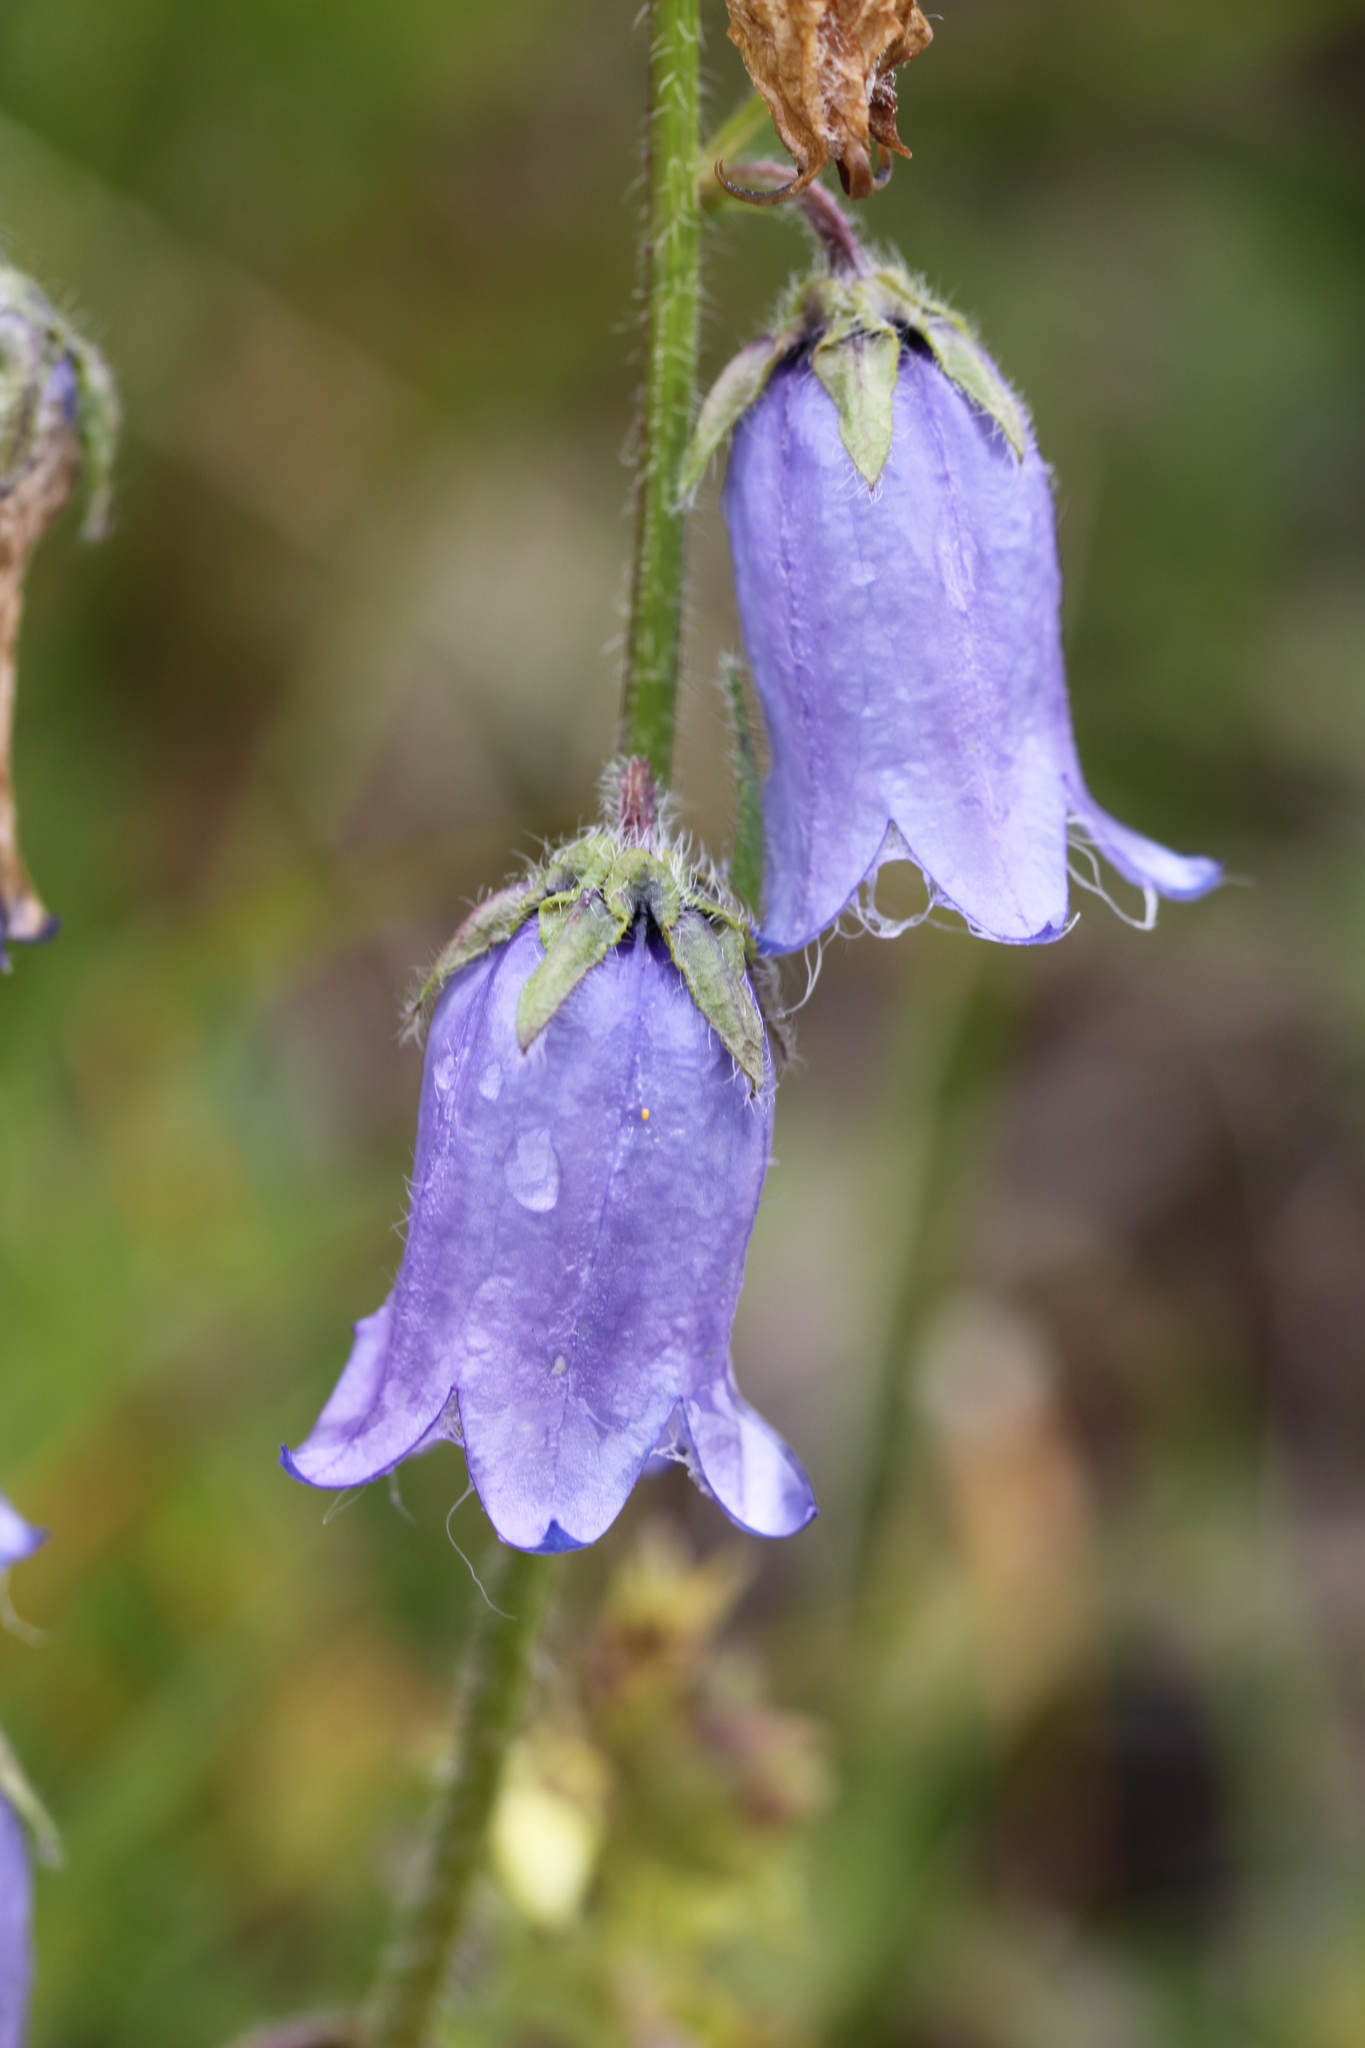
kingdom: Plantae
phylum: Tracheophyta
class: Magnoliopsida
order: Asterales
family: Campanulaceae
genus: Campanula
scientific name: Campanula barbata
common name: Bearded bellflower
